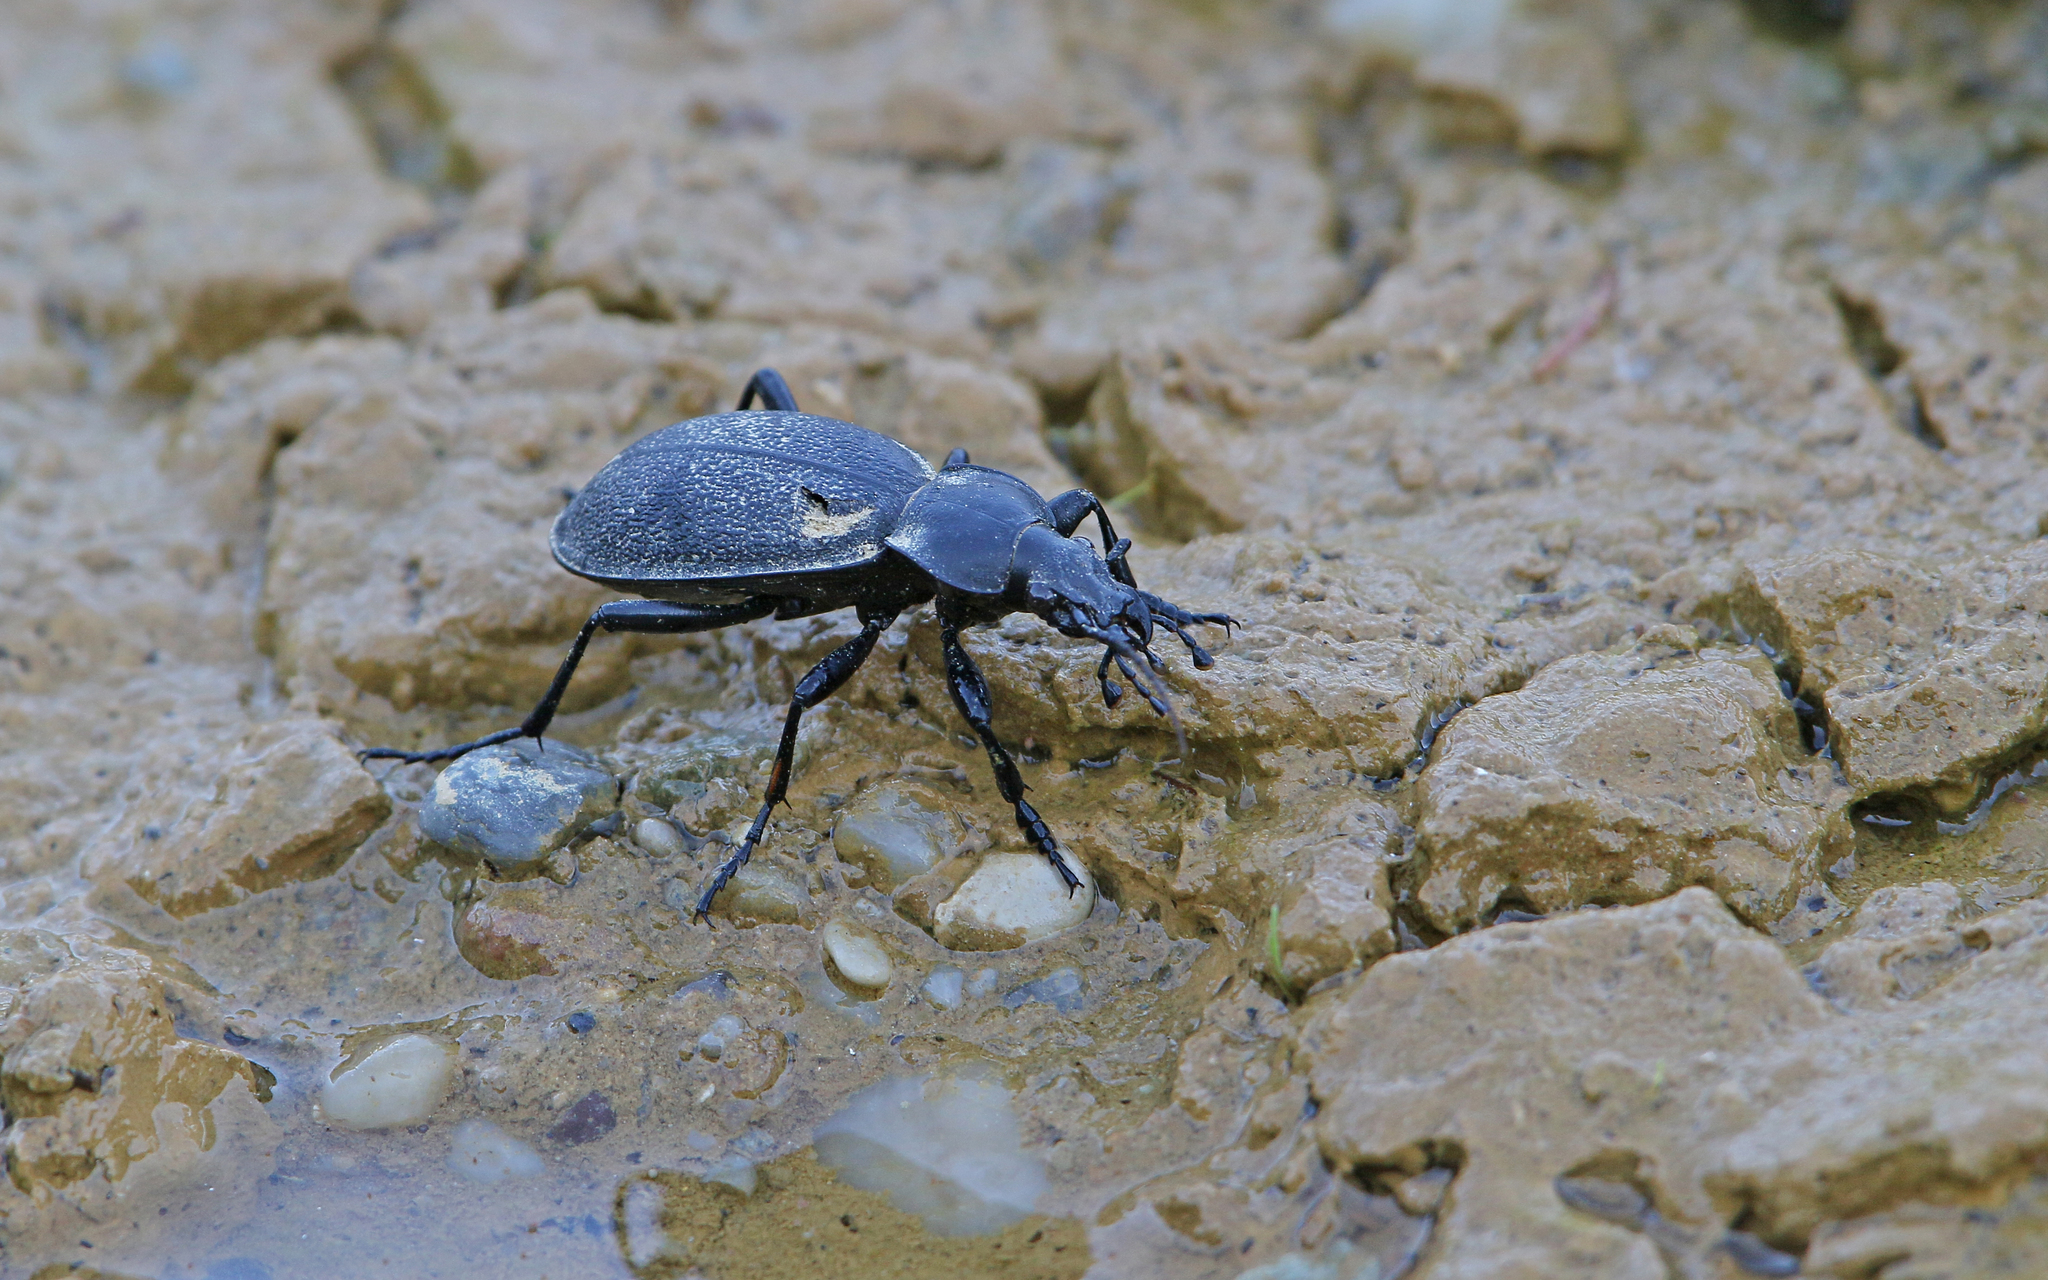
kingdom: Animalia
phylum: Arthropoda
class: Insecta
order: Coleoptera
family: Carabidae
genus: Carabus
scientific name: Carabus coriaceus
